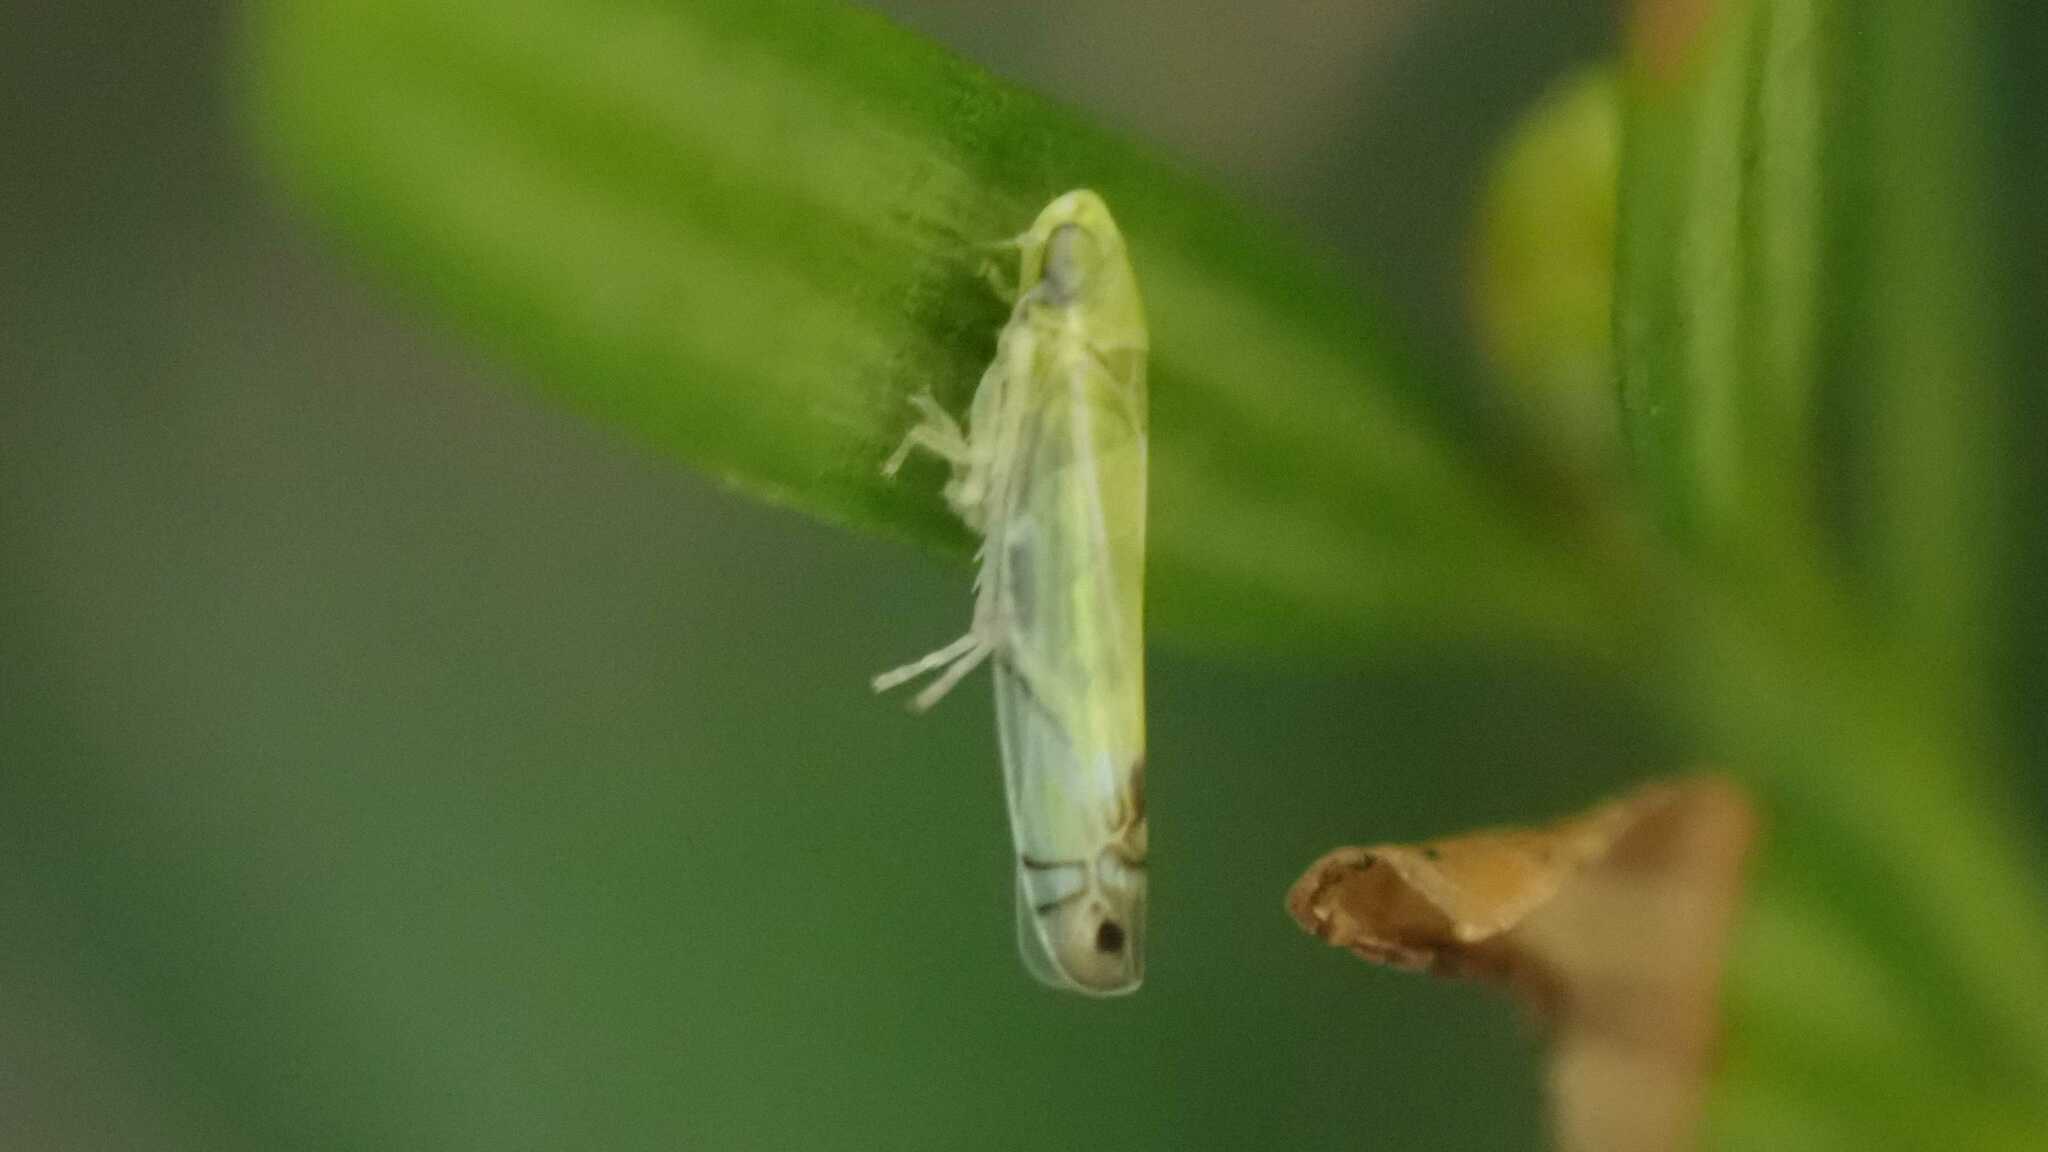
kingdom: Animalia
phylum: Arthropoda
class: Insecta
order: Hemiptera
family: Cicadellidae
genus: Zyginella
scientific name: Zyginella pulchra
